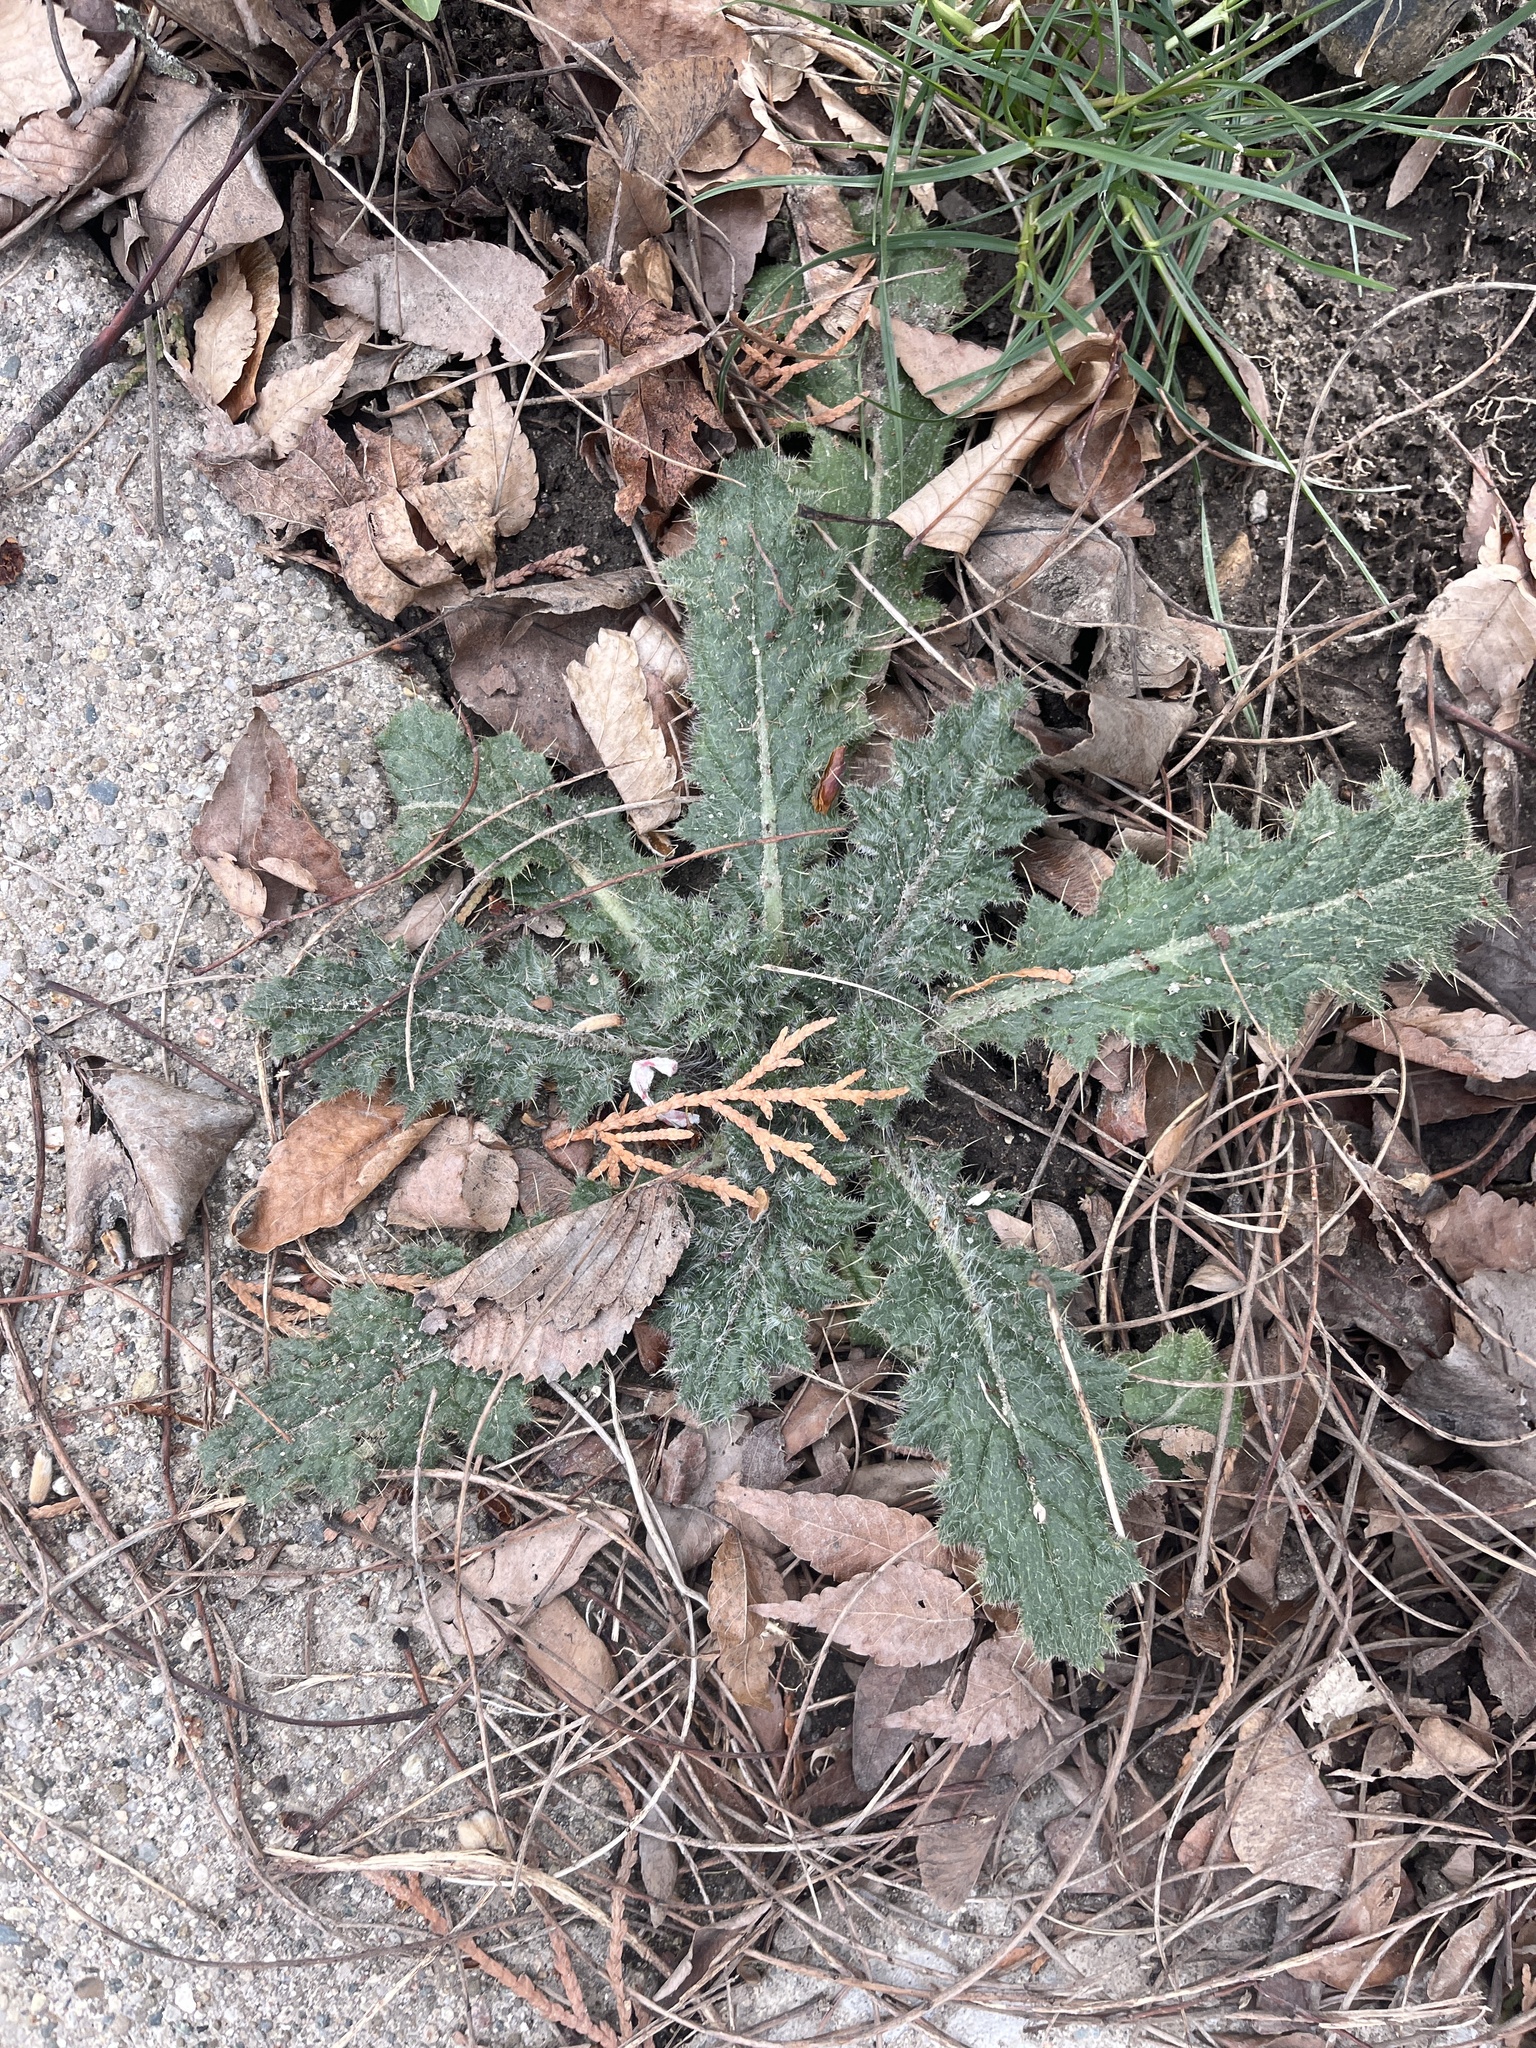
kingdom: Plantae
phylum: Tracheophyta
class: Magnoliopsida
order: Asterales
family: Asteraceae
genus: Cirsium
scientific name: Cirsium vulgare
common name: Bull thistle
